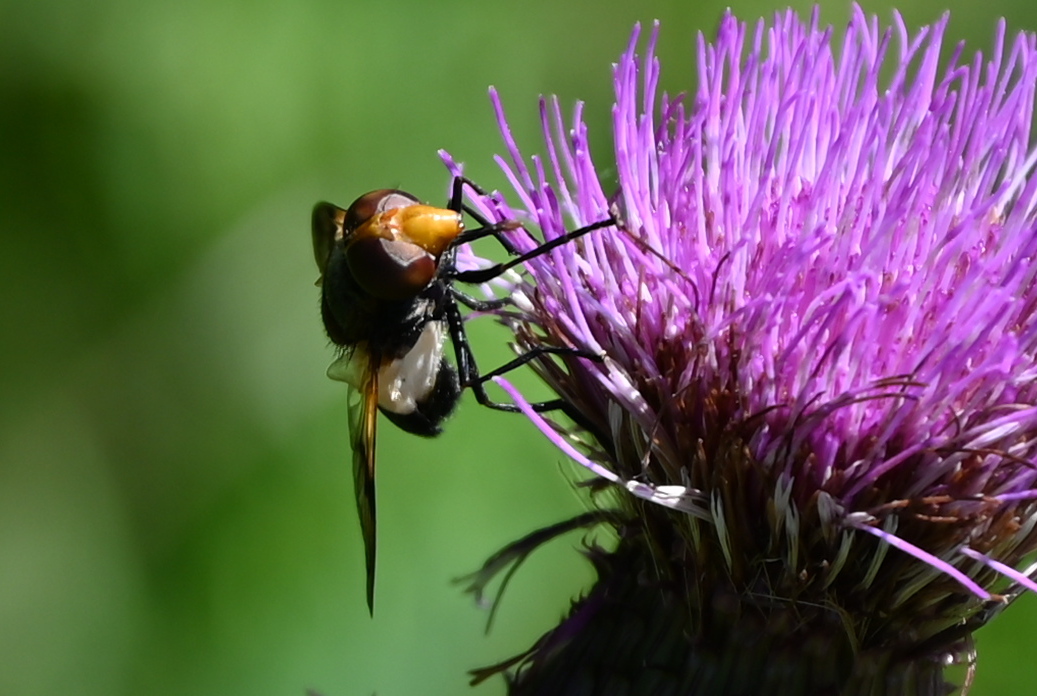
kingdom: Animalia
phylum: Arthropoda
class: Insecta
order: Diptera
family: Syrphidae
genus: Volucella
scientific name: Volucella pellucens
